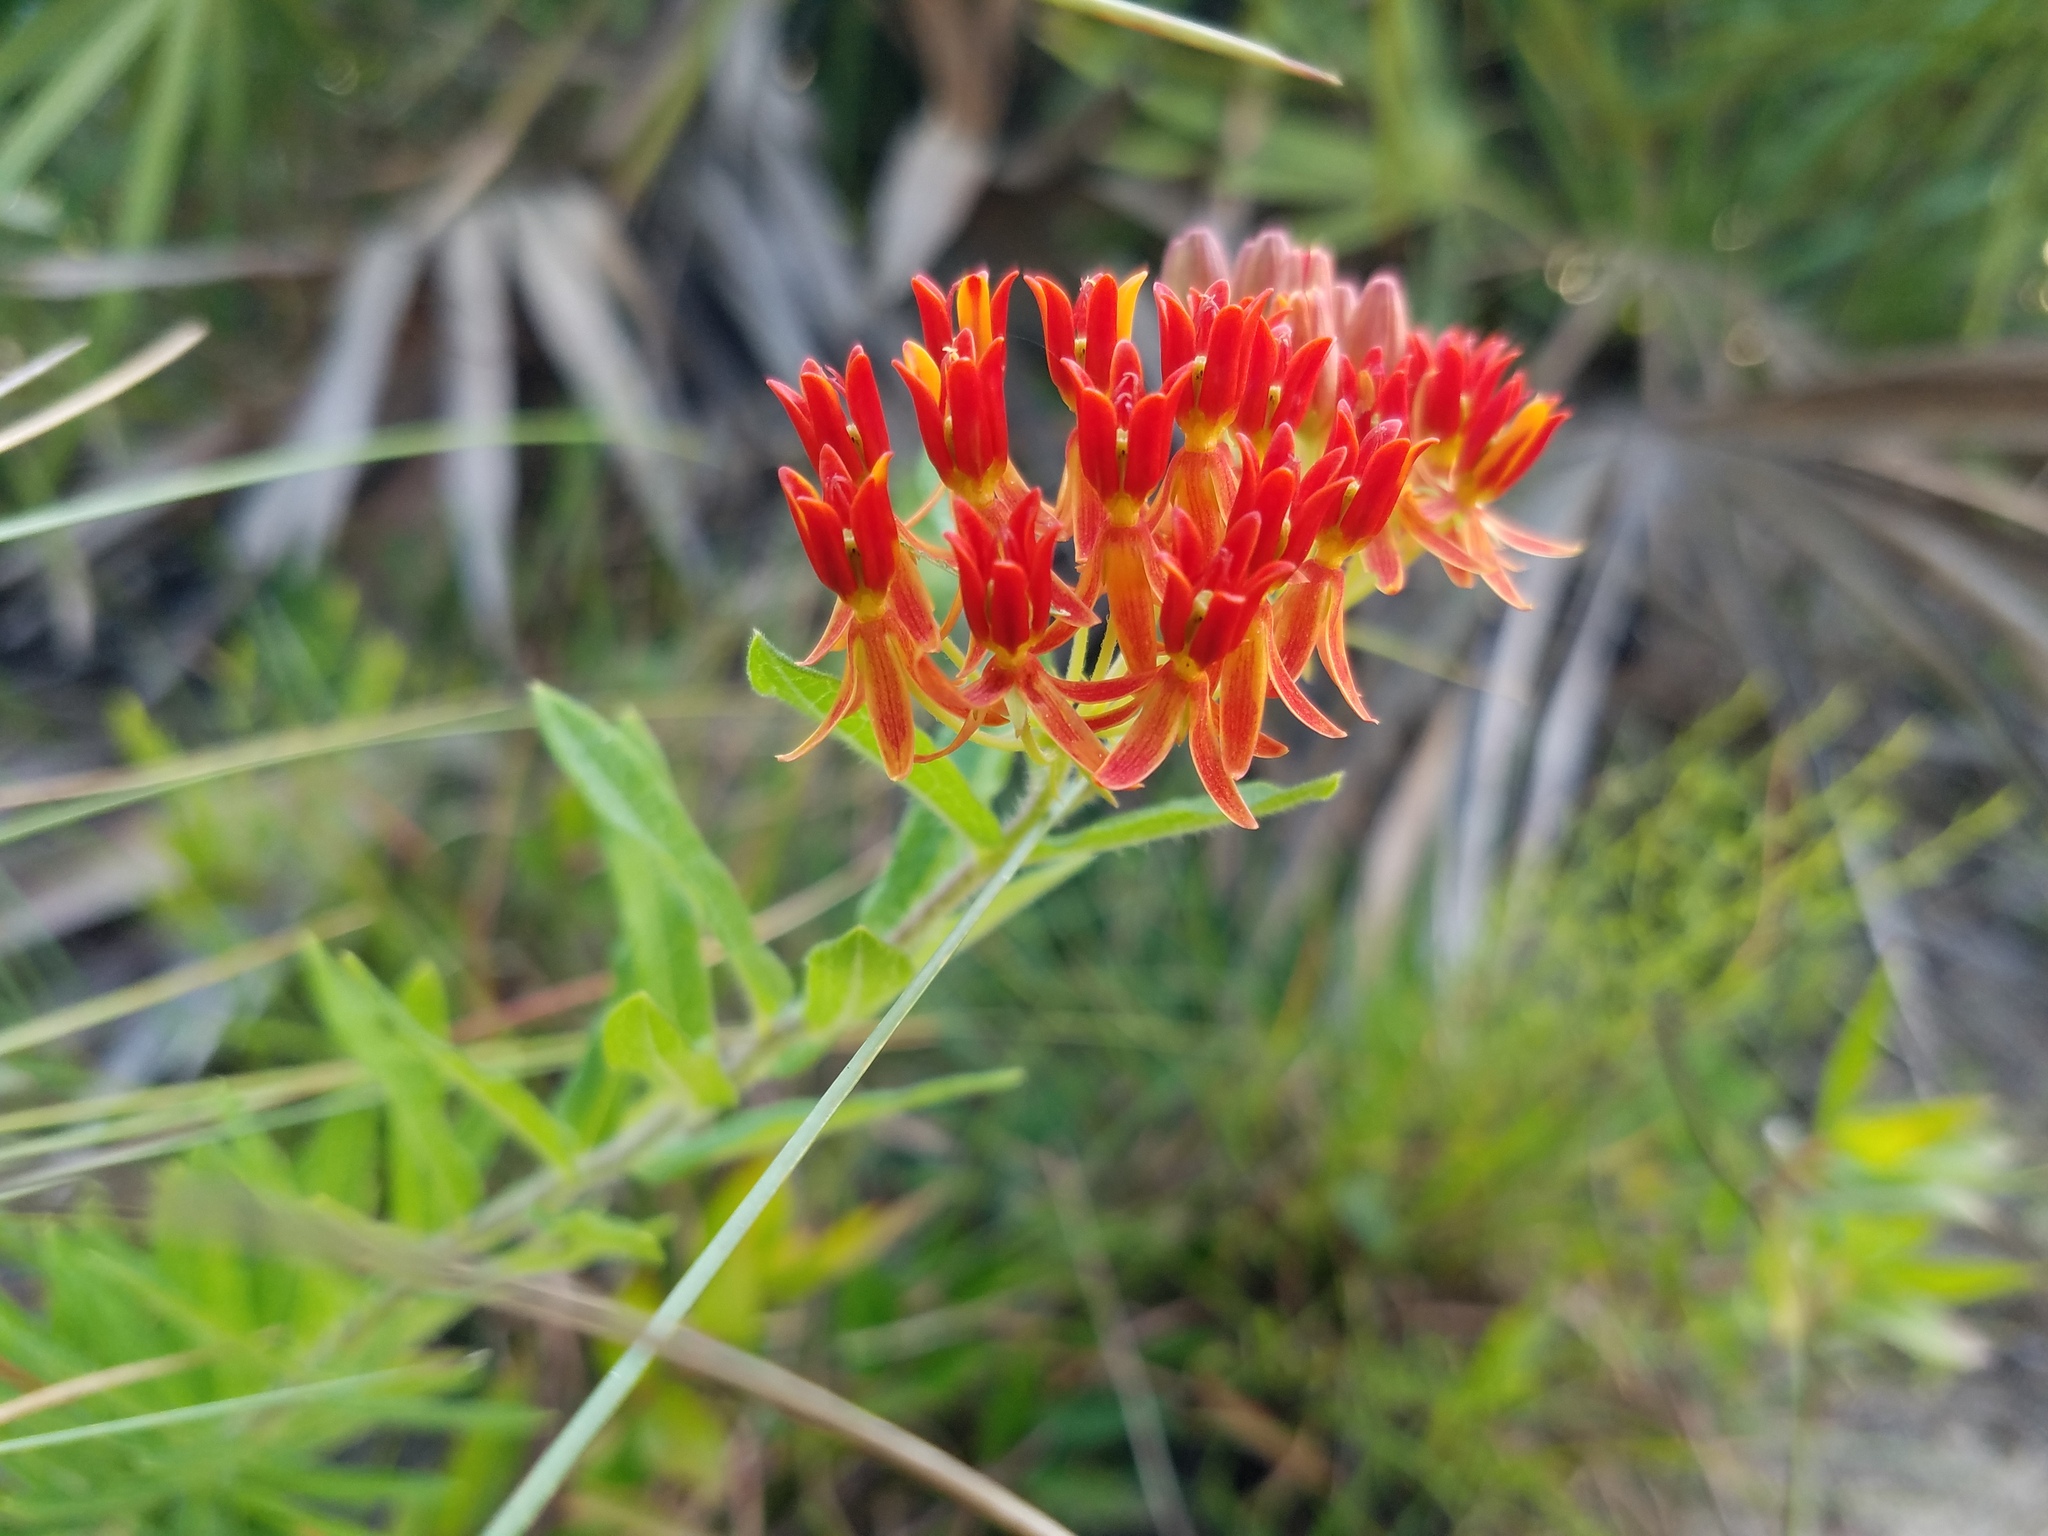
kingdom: Plantae
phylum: Tracheophyta
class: Magnoliopsida
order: Gentianales
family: Apocynaceae
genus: Asclepias
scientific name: Asclepias tuberosa
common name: Butterfly milkweed
